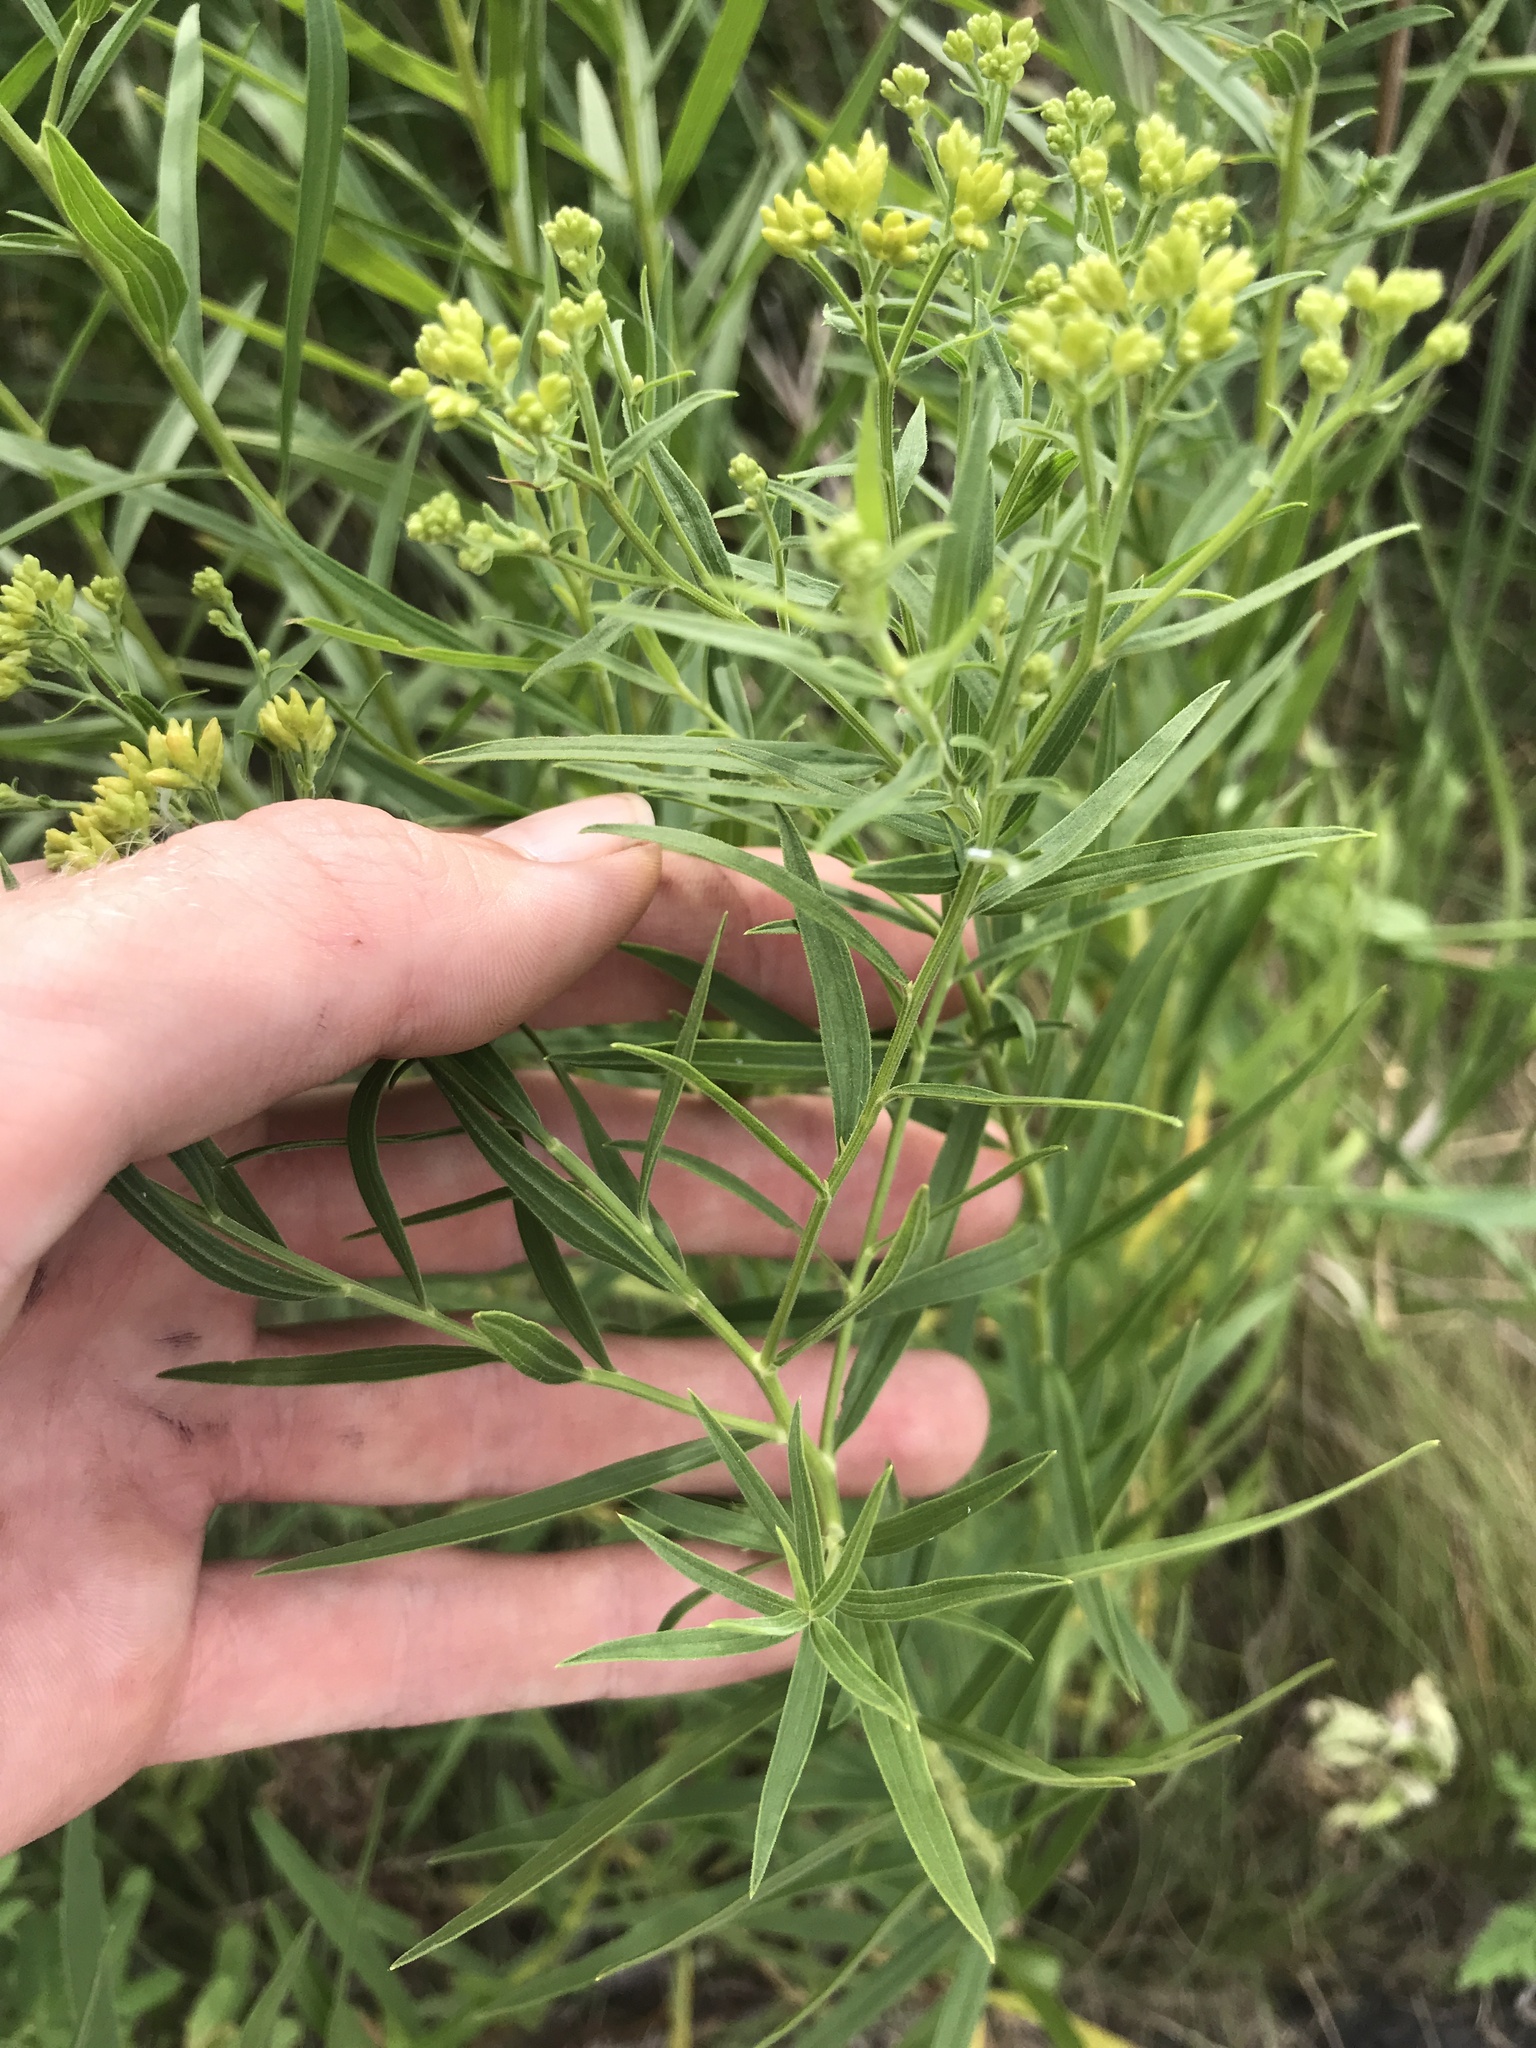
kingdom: Plantae
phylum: Tracheophyta
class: Magnoliopsida
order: Asterales
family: Asteraceae
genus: Euthamia
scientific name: Euthamia graminifolia
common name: Common goldentop
